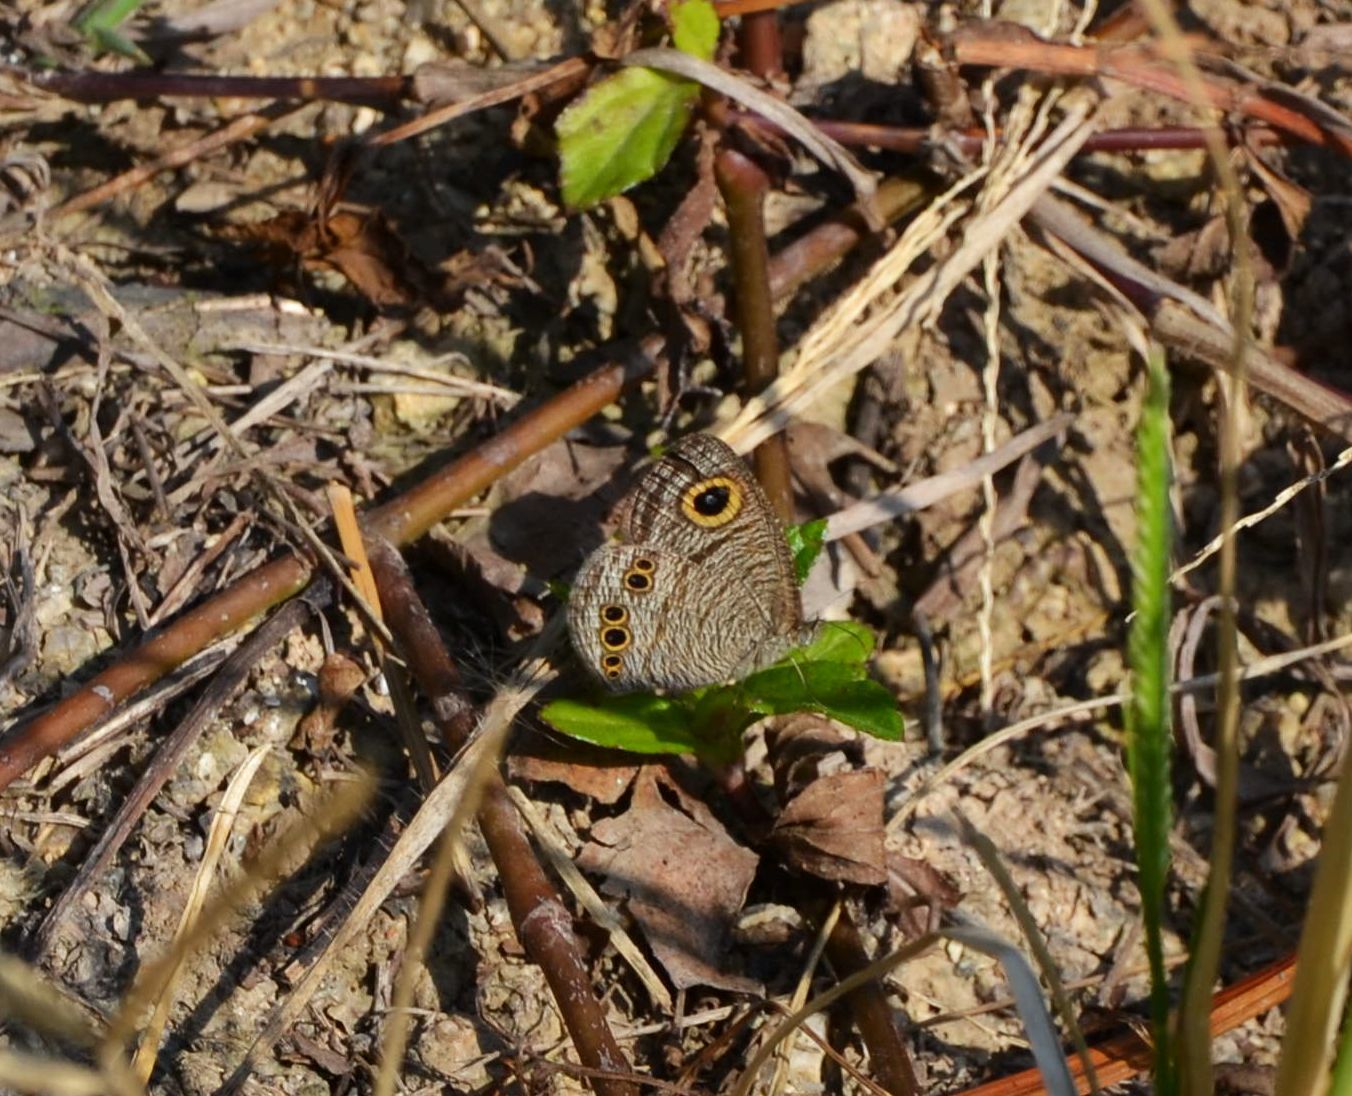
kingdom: Animalia
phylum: Arthropoda
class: Insecta
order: Lepidoptera
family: Nymphalidae
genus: Ypthima
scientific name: Ypthima lisandra
